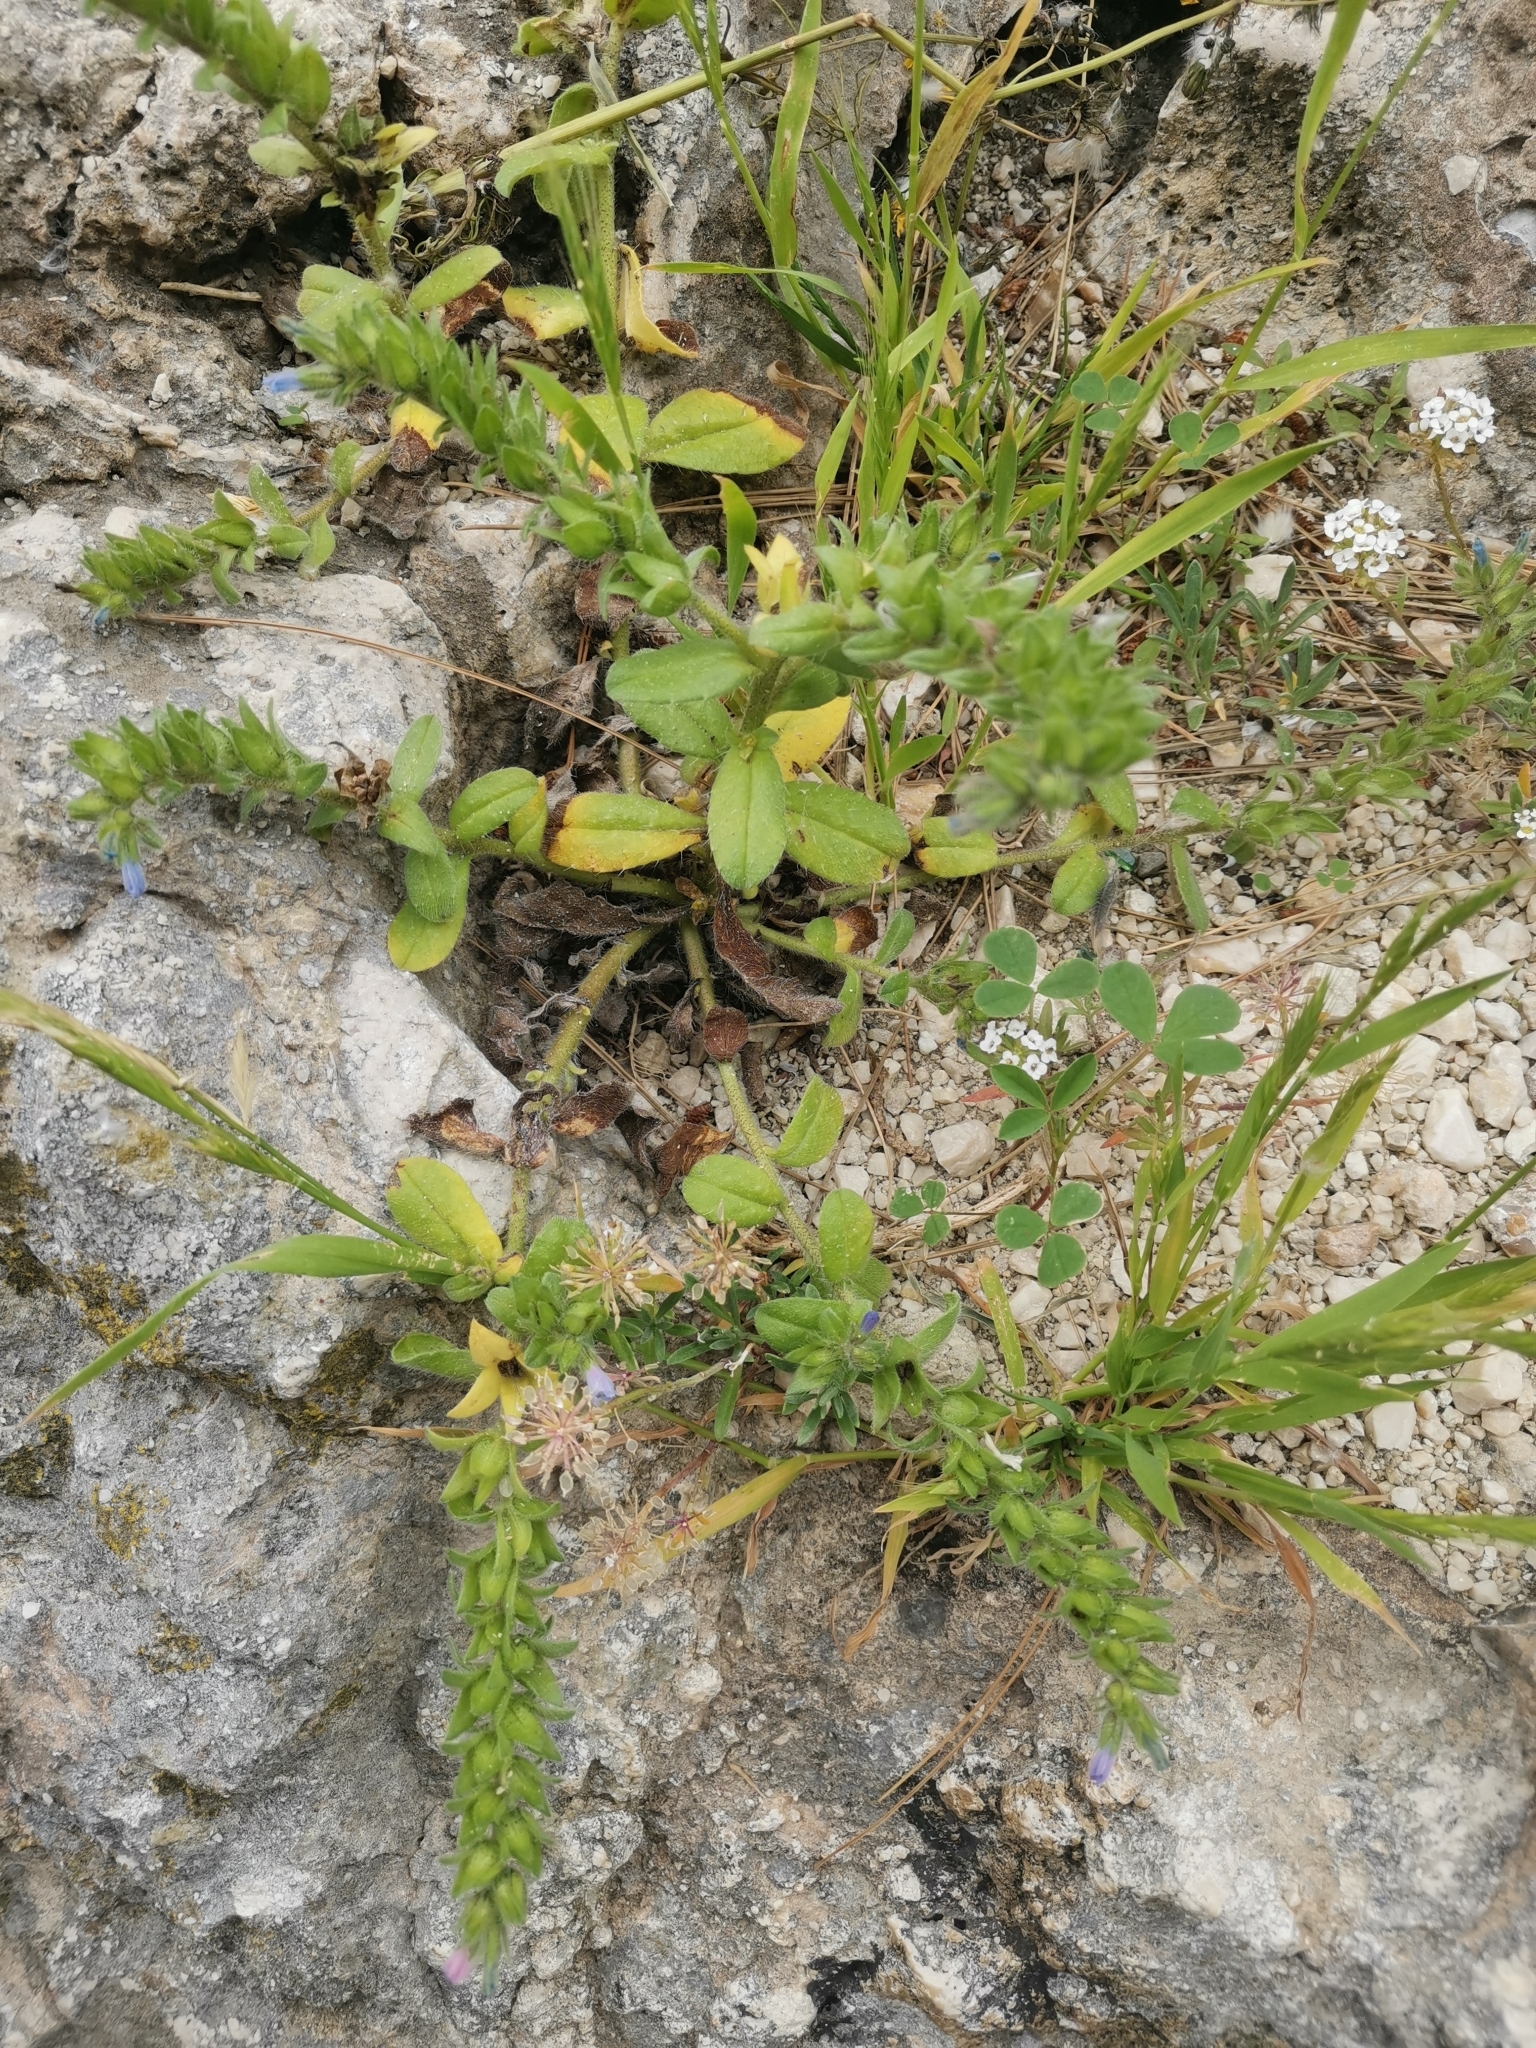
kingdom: Plantae
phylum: Tracheophyta
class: Magnoliopsida
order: Boraginales
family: Boraginaceae
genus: Echium
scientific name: Echium parviflorum
